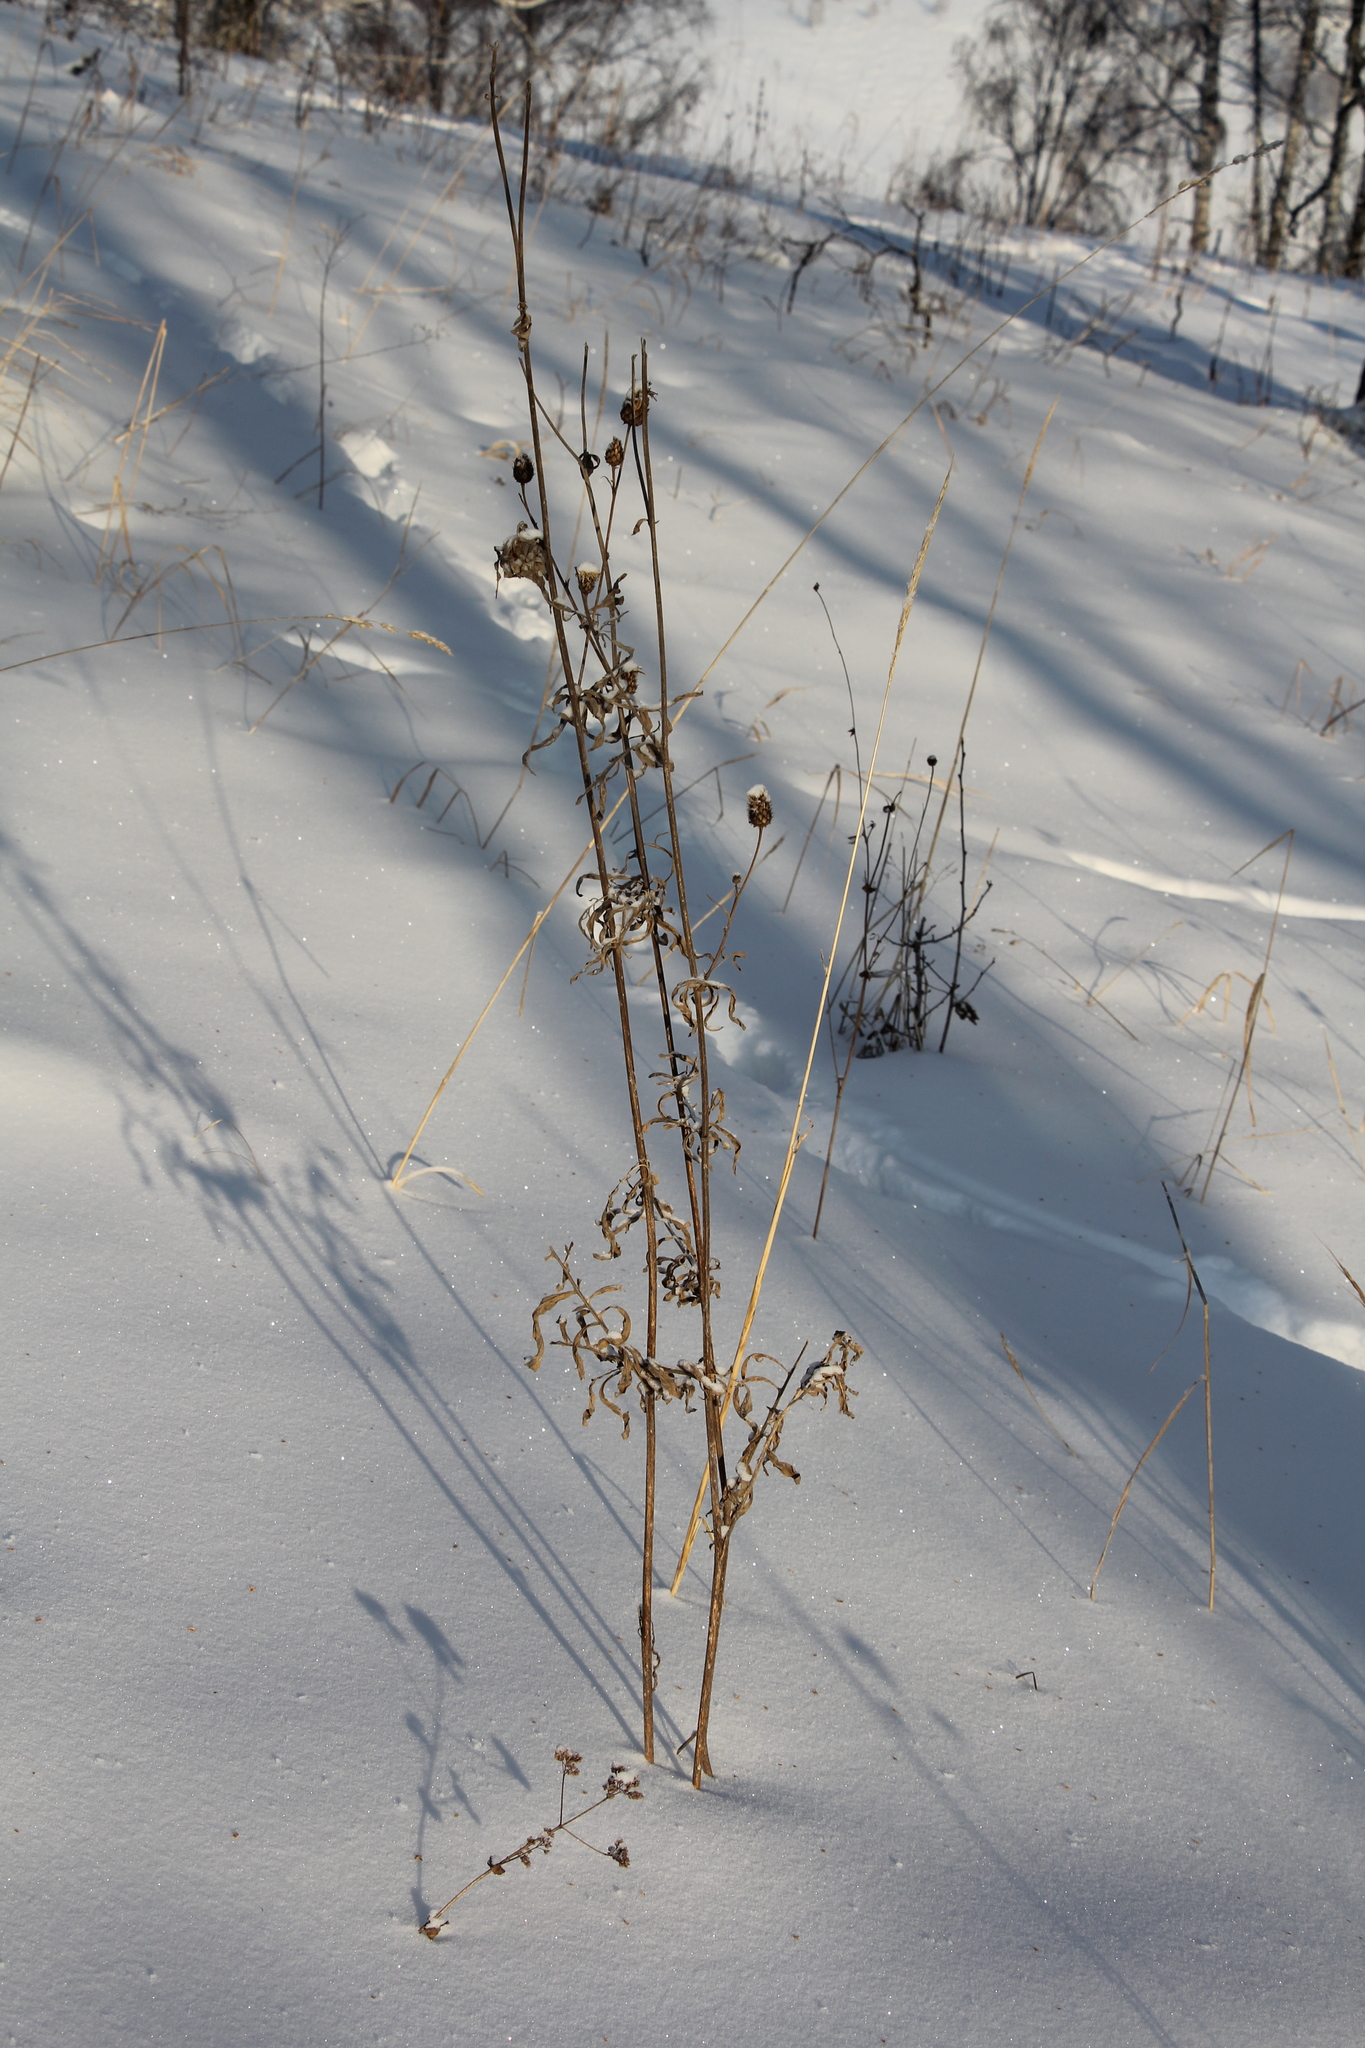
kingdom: Plantae
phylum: Tracheophyta
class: Magnoliopsida
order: Asterales
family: Asteraceae
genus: Centaurea
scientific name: Centaurea scabiosa
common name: Greater knapweed
